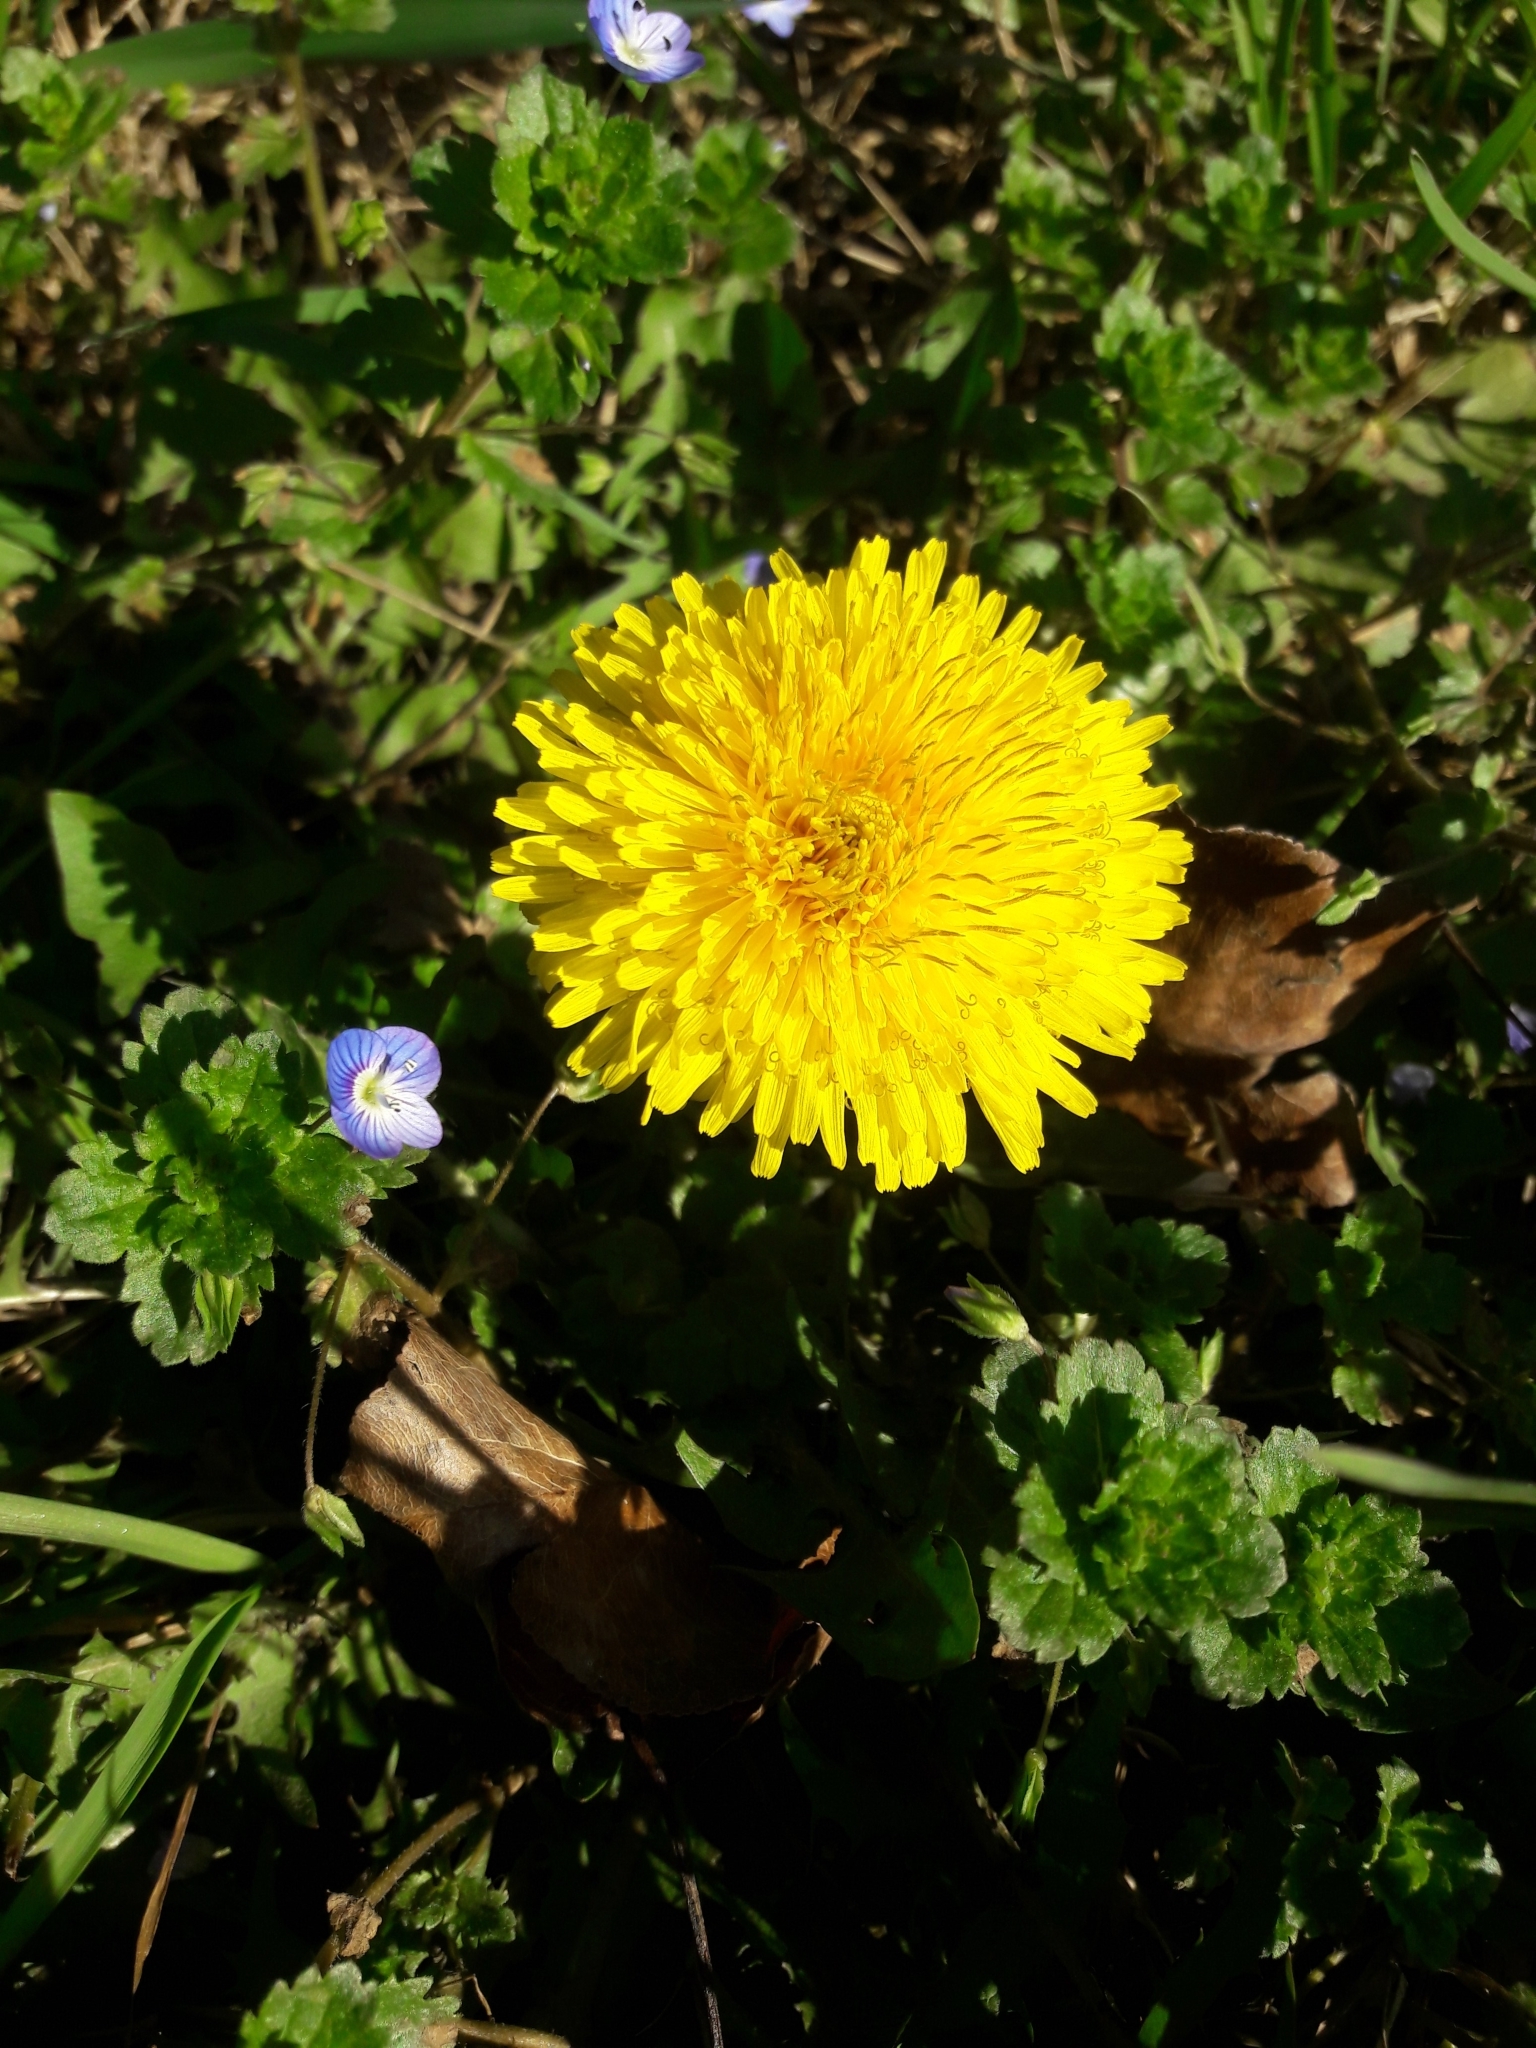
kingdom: Plantae
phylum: Tracheophyta
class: Magnoliopsida
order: Asterales
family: Asteraceae
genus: Taraxacum
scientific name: Taraxacum officinale
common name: Common dandelion
